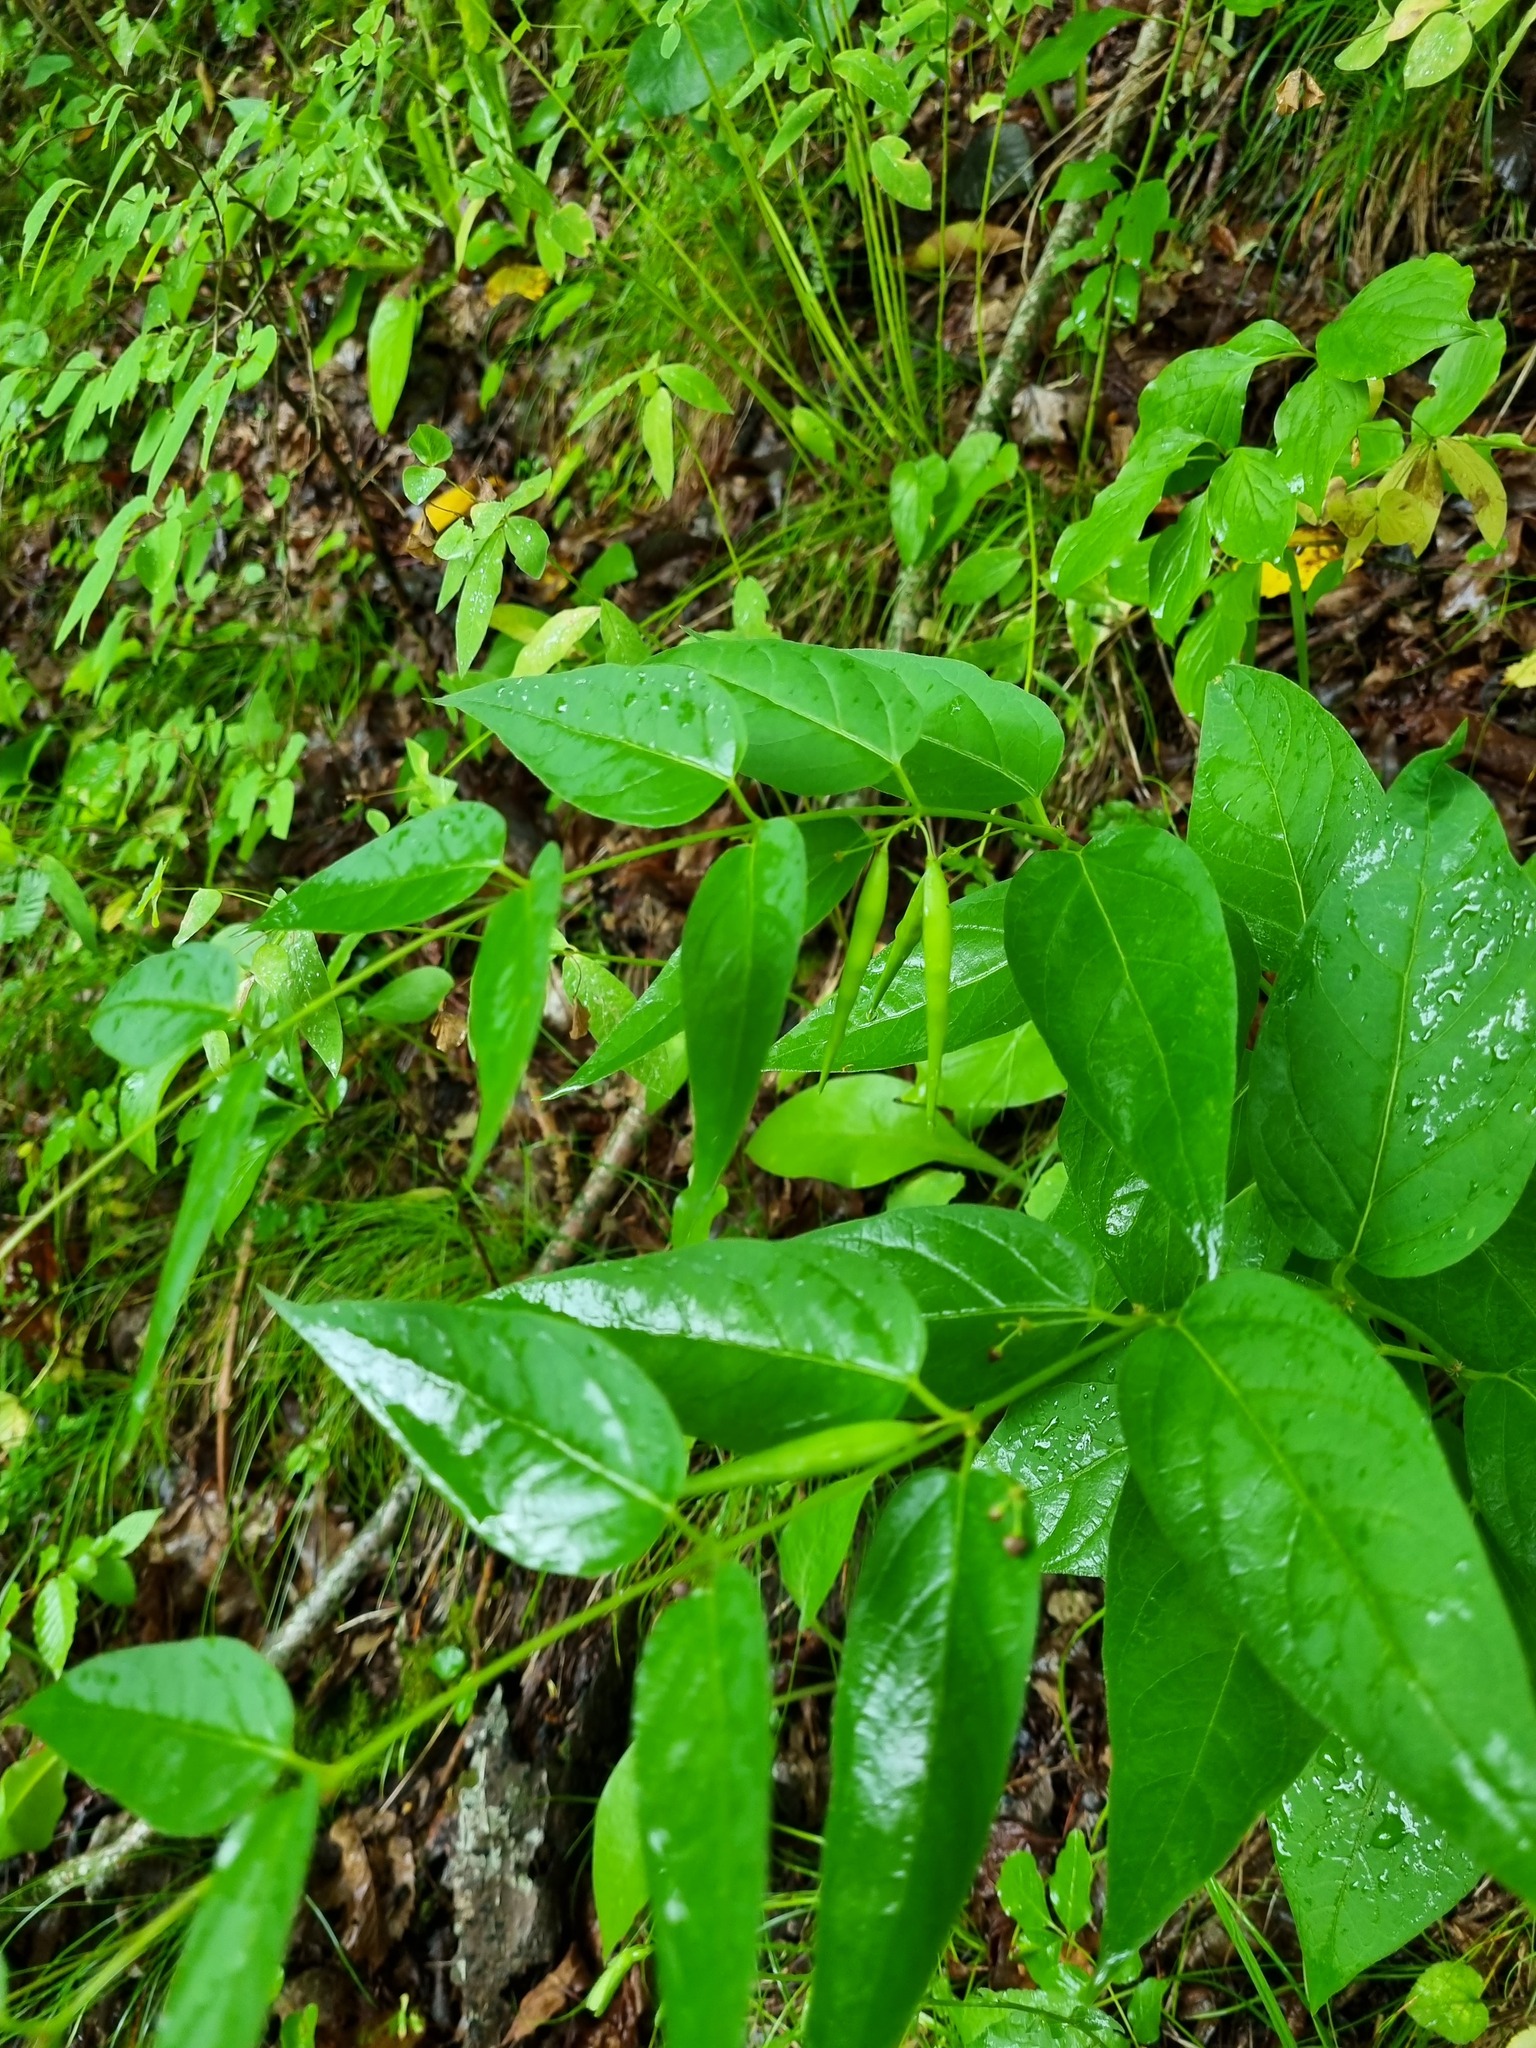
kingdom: Plantae
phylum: Tracheophyta
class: Magnoliopsida
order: Gentianales
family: Apocynaceae
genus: Vincetoxicum
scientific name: Vincetoxicum scandens
